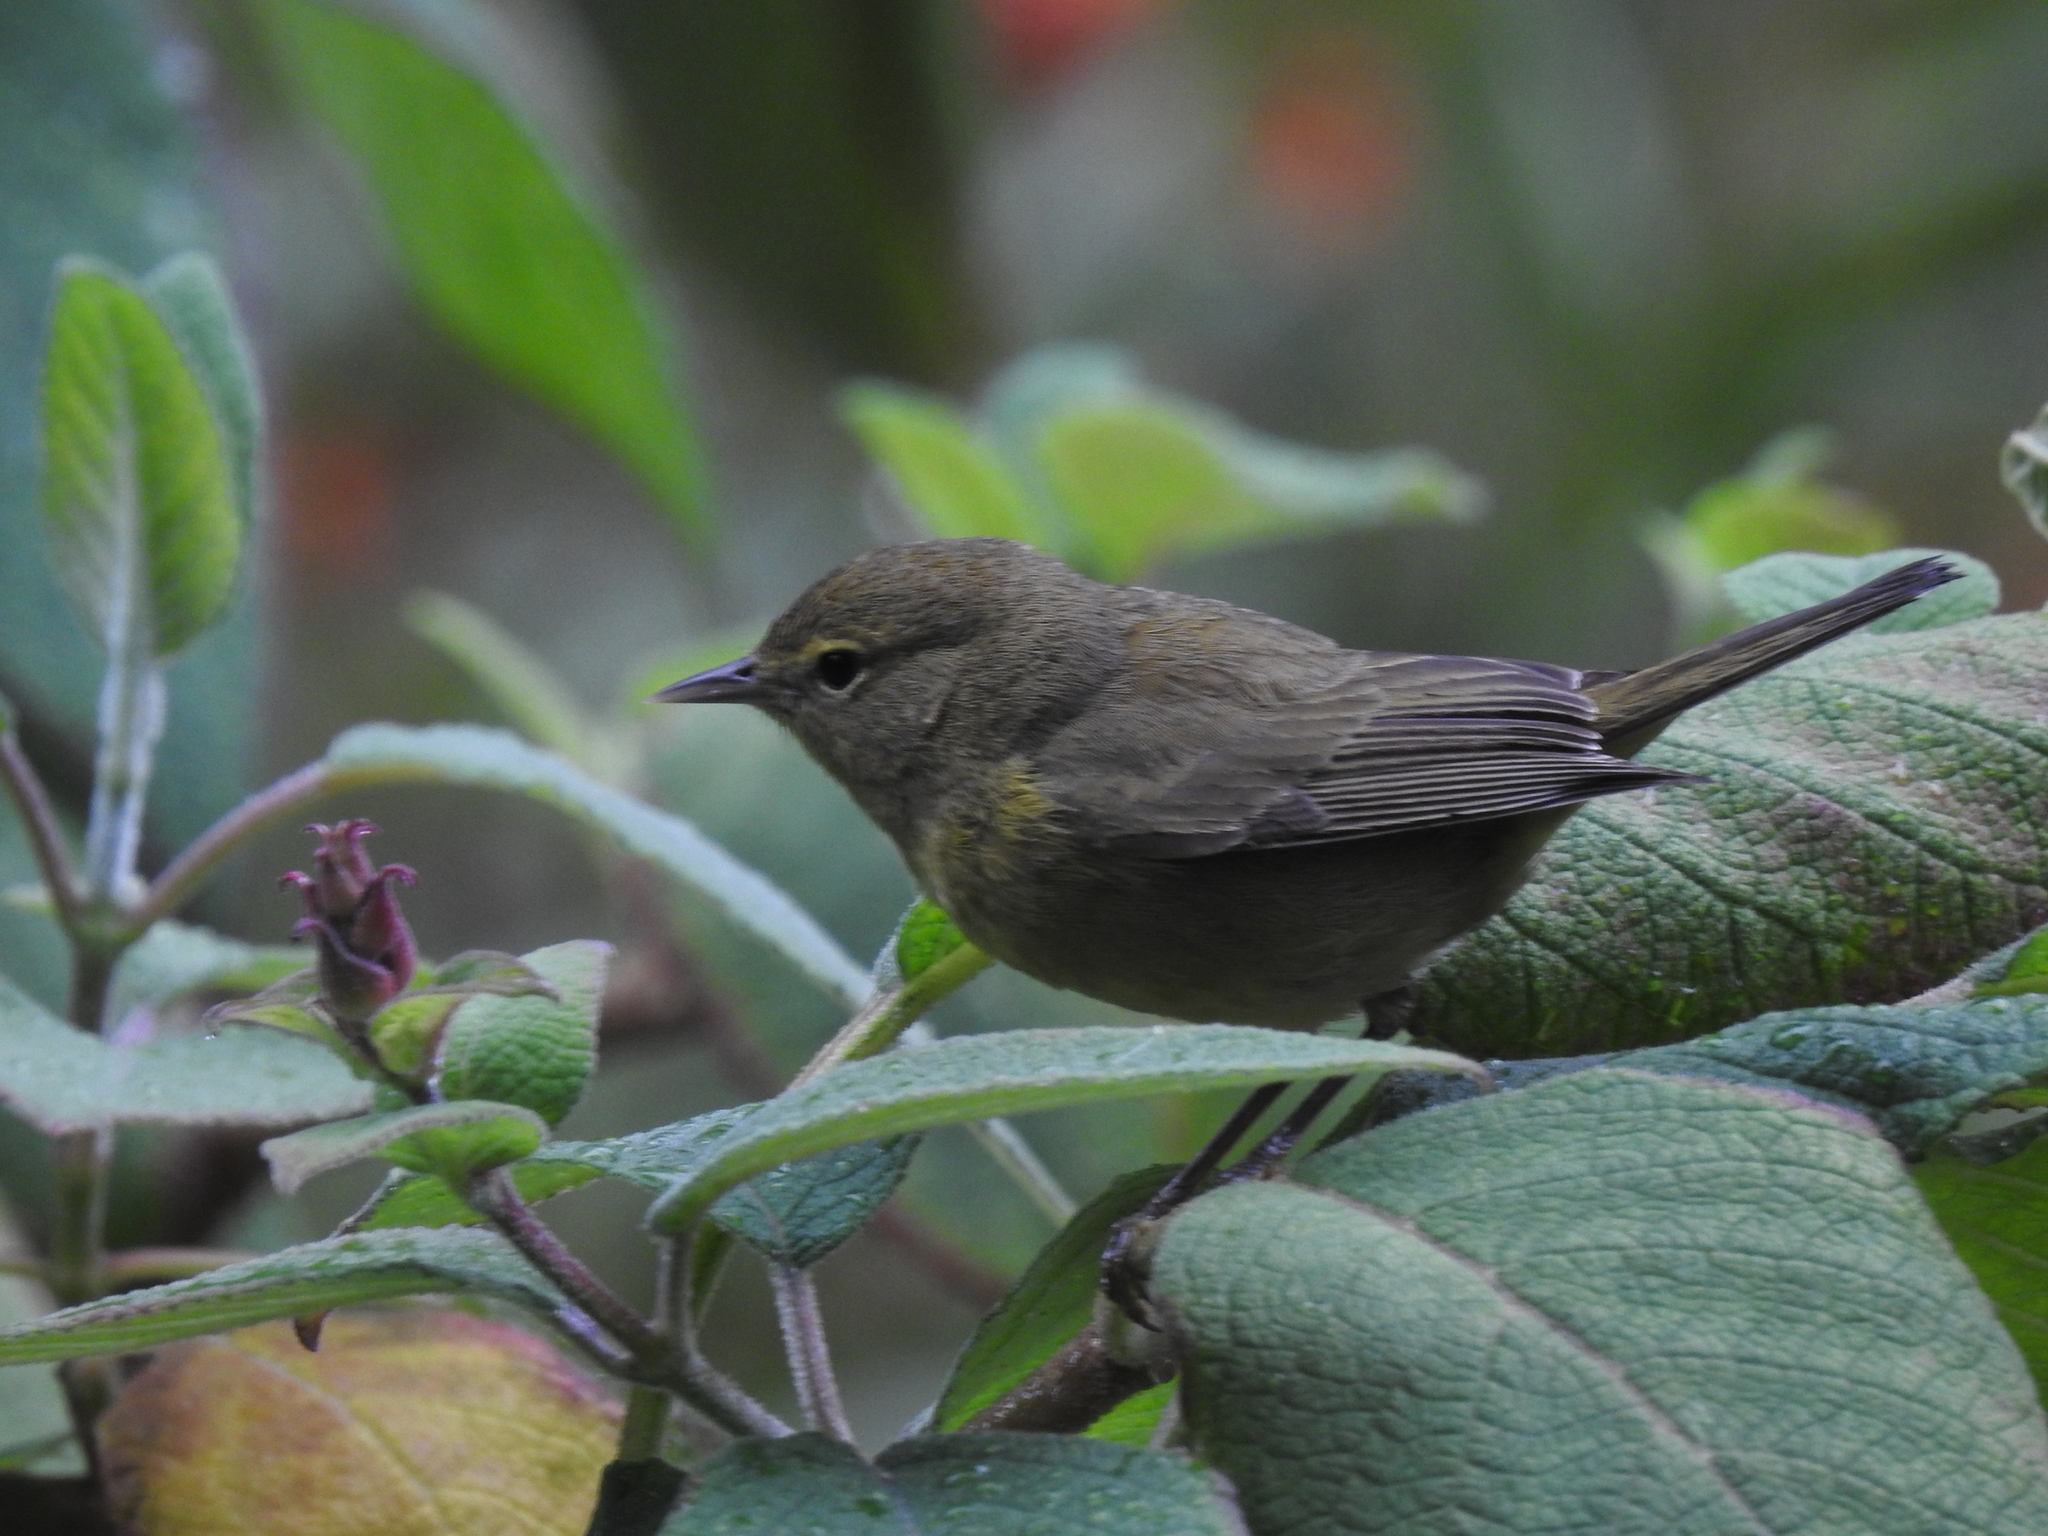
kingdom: Animalia
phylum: Chordata
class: Aves
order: Passeriformes
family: Parulidae
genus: Leiothlypis
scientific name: Leiothlypis celata
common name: Orange-crowned warbler
